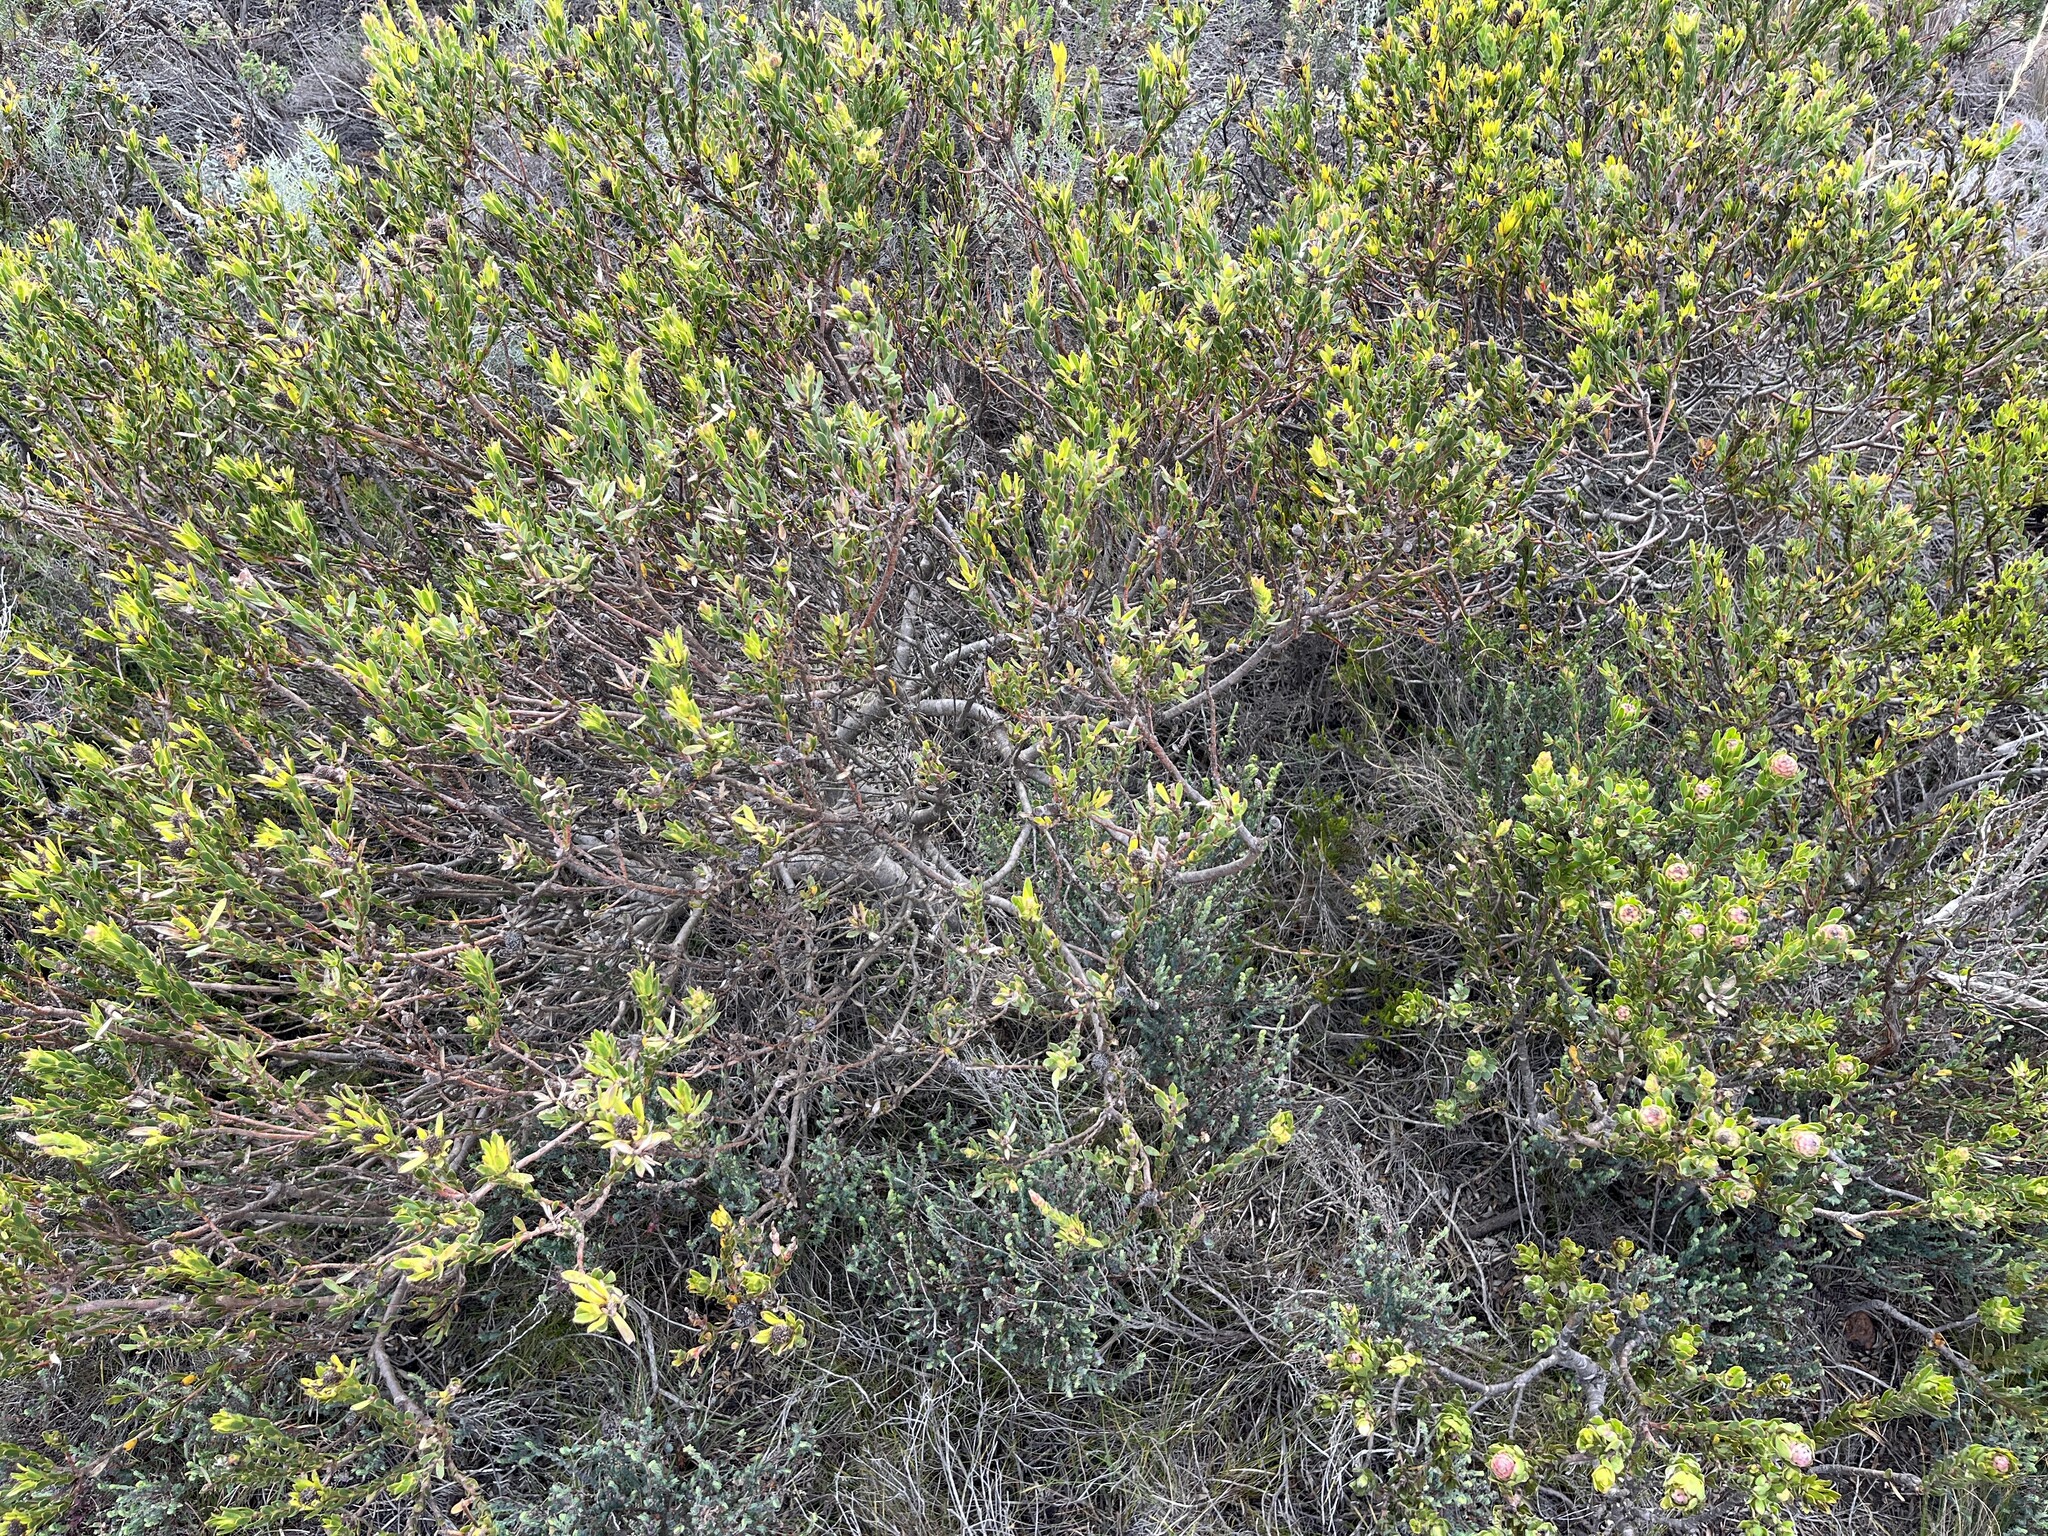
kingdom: Plantae
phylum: Tracheophyta
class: Magnoliopsida
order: Proteales
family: Proteaceae
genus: Leucadendron
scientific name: Leucadendron stelligerum
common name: Agulhas conebush
